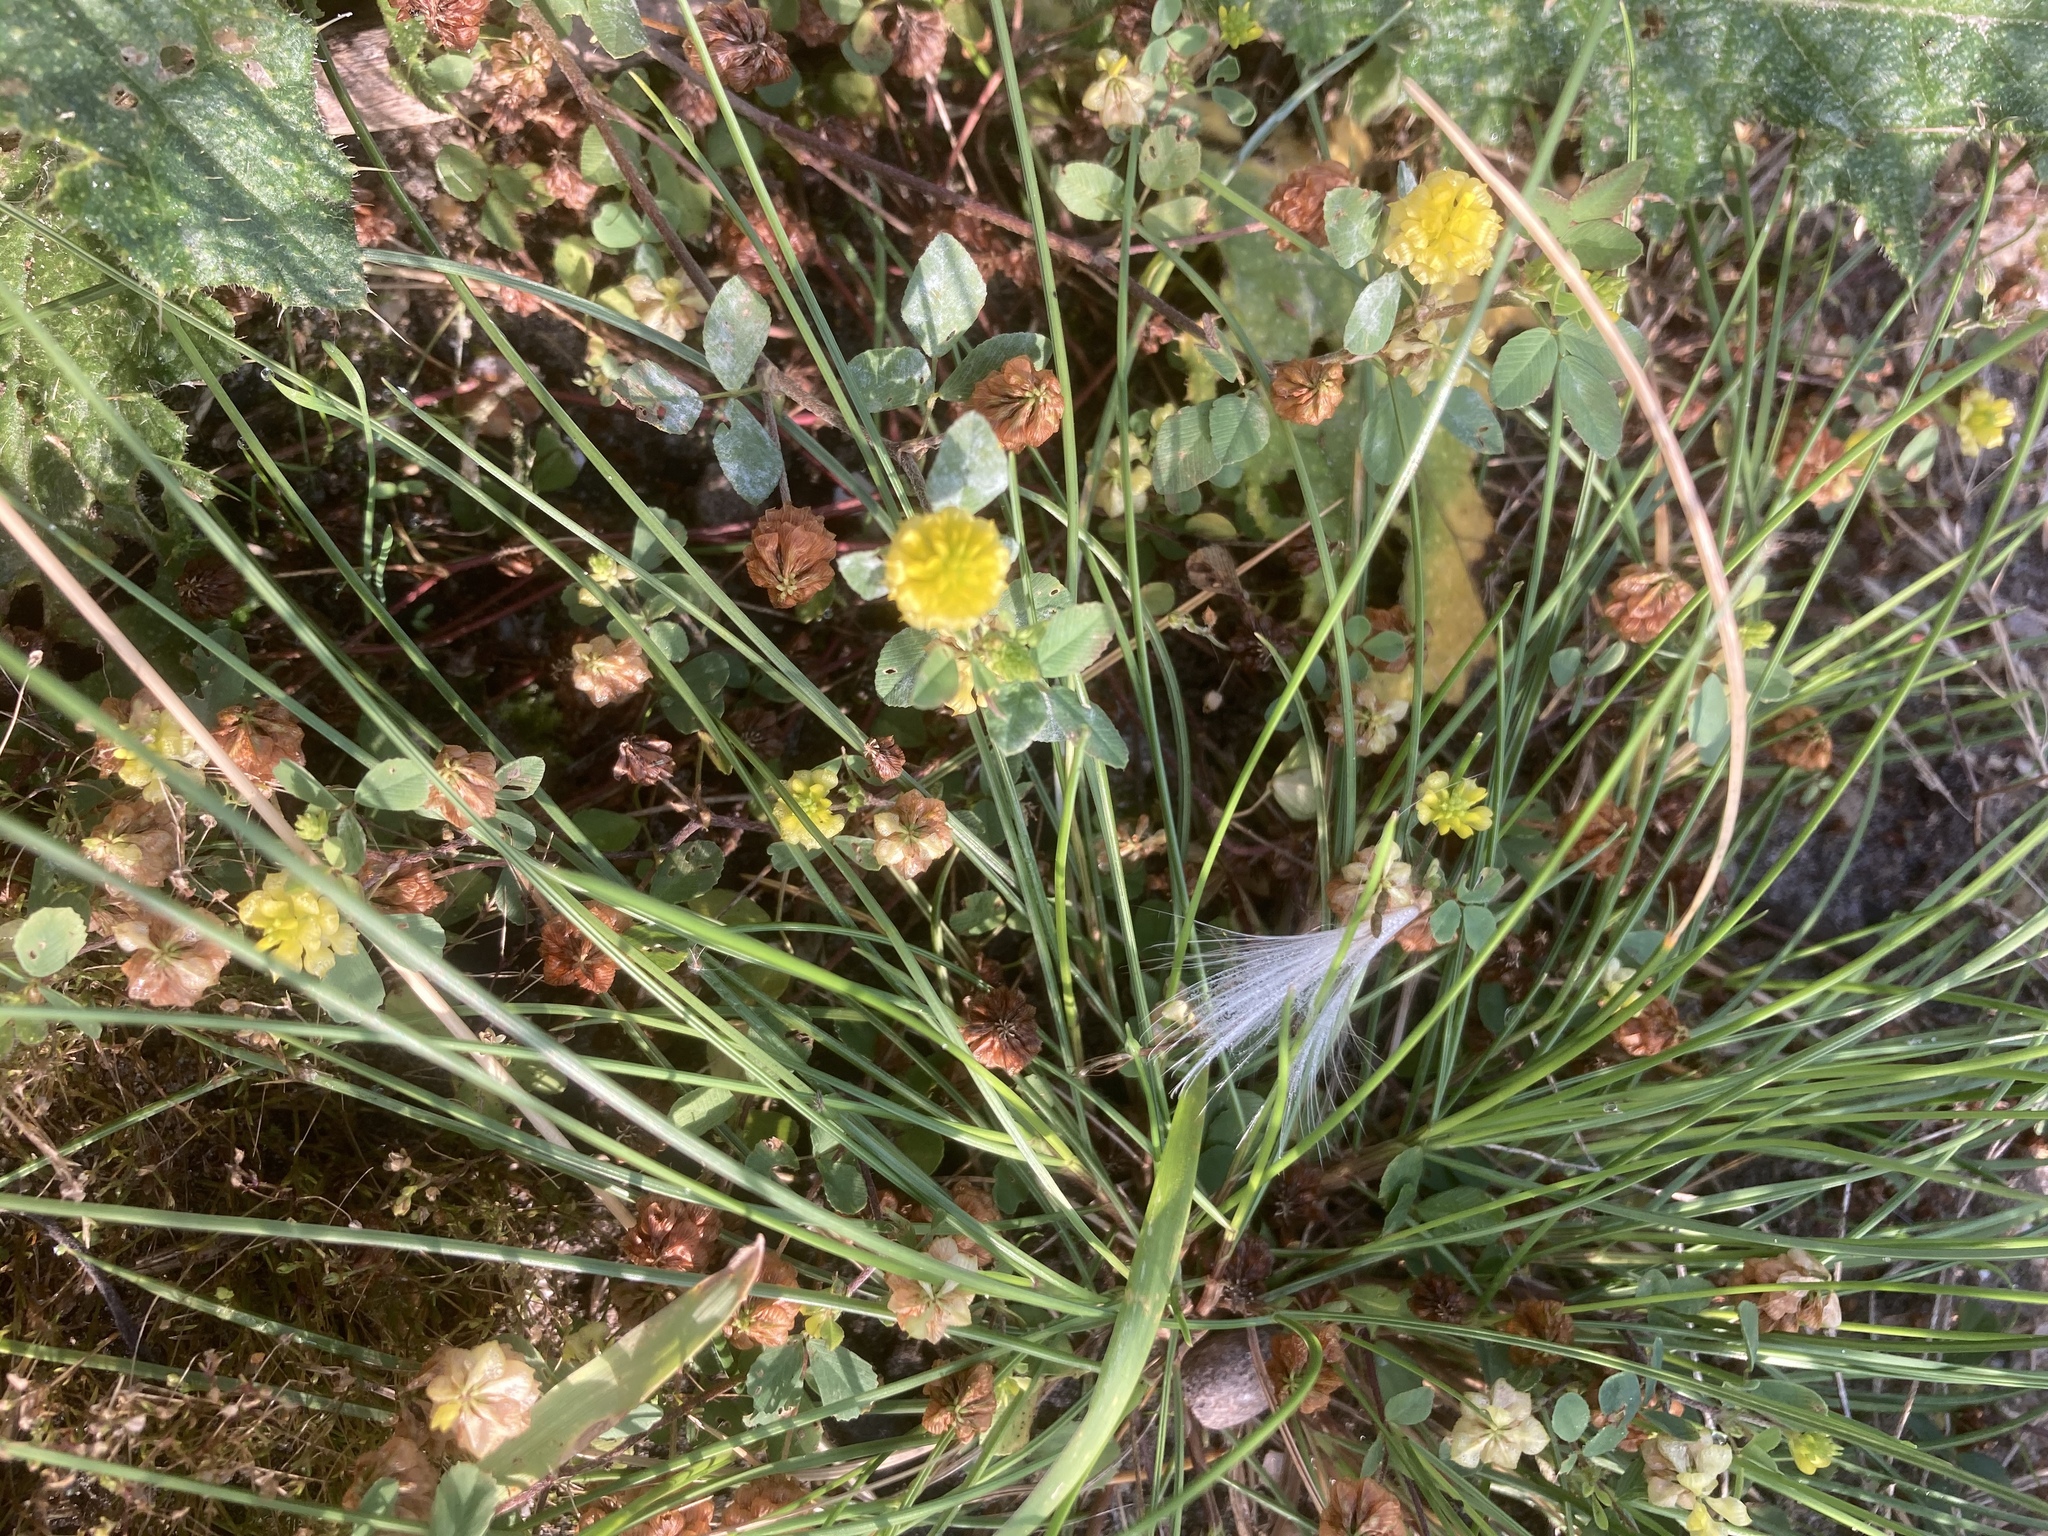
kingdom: Plantae
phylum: Tracheophyta
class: Magnoliopsida
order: Fabales
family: Fabaceae
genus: Trifolium
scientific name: Trifolium campestre
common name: Field clover
